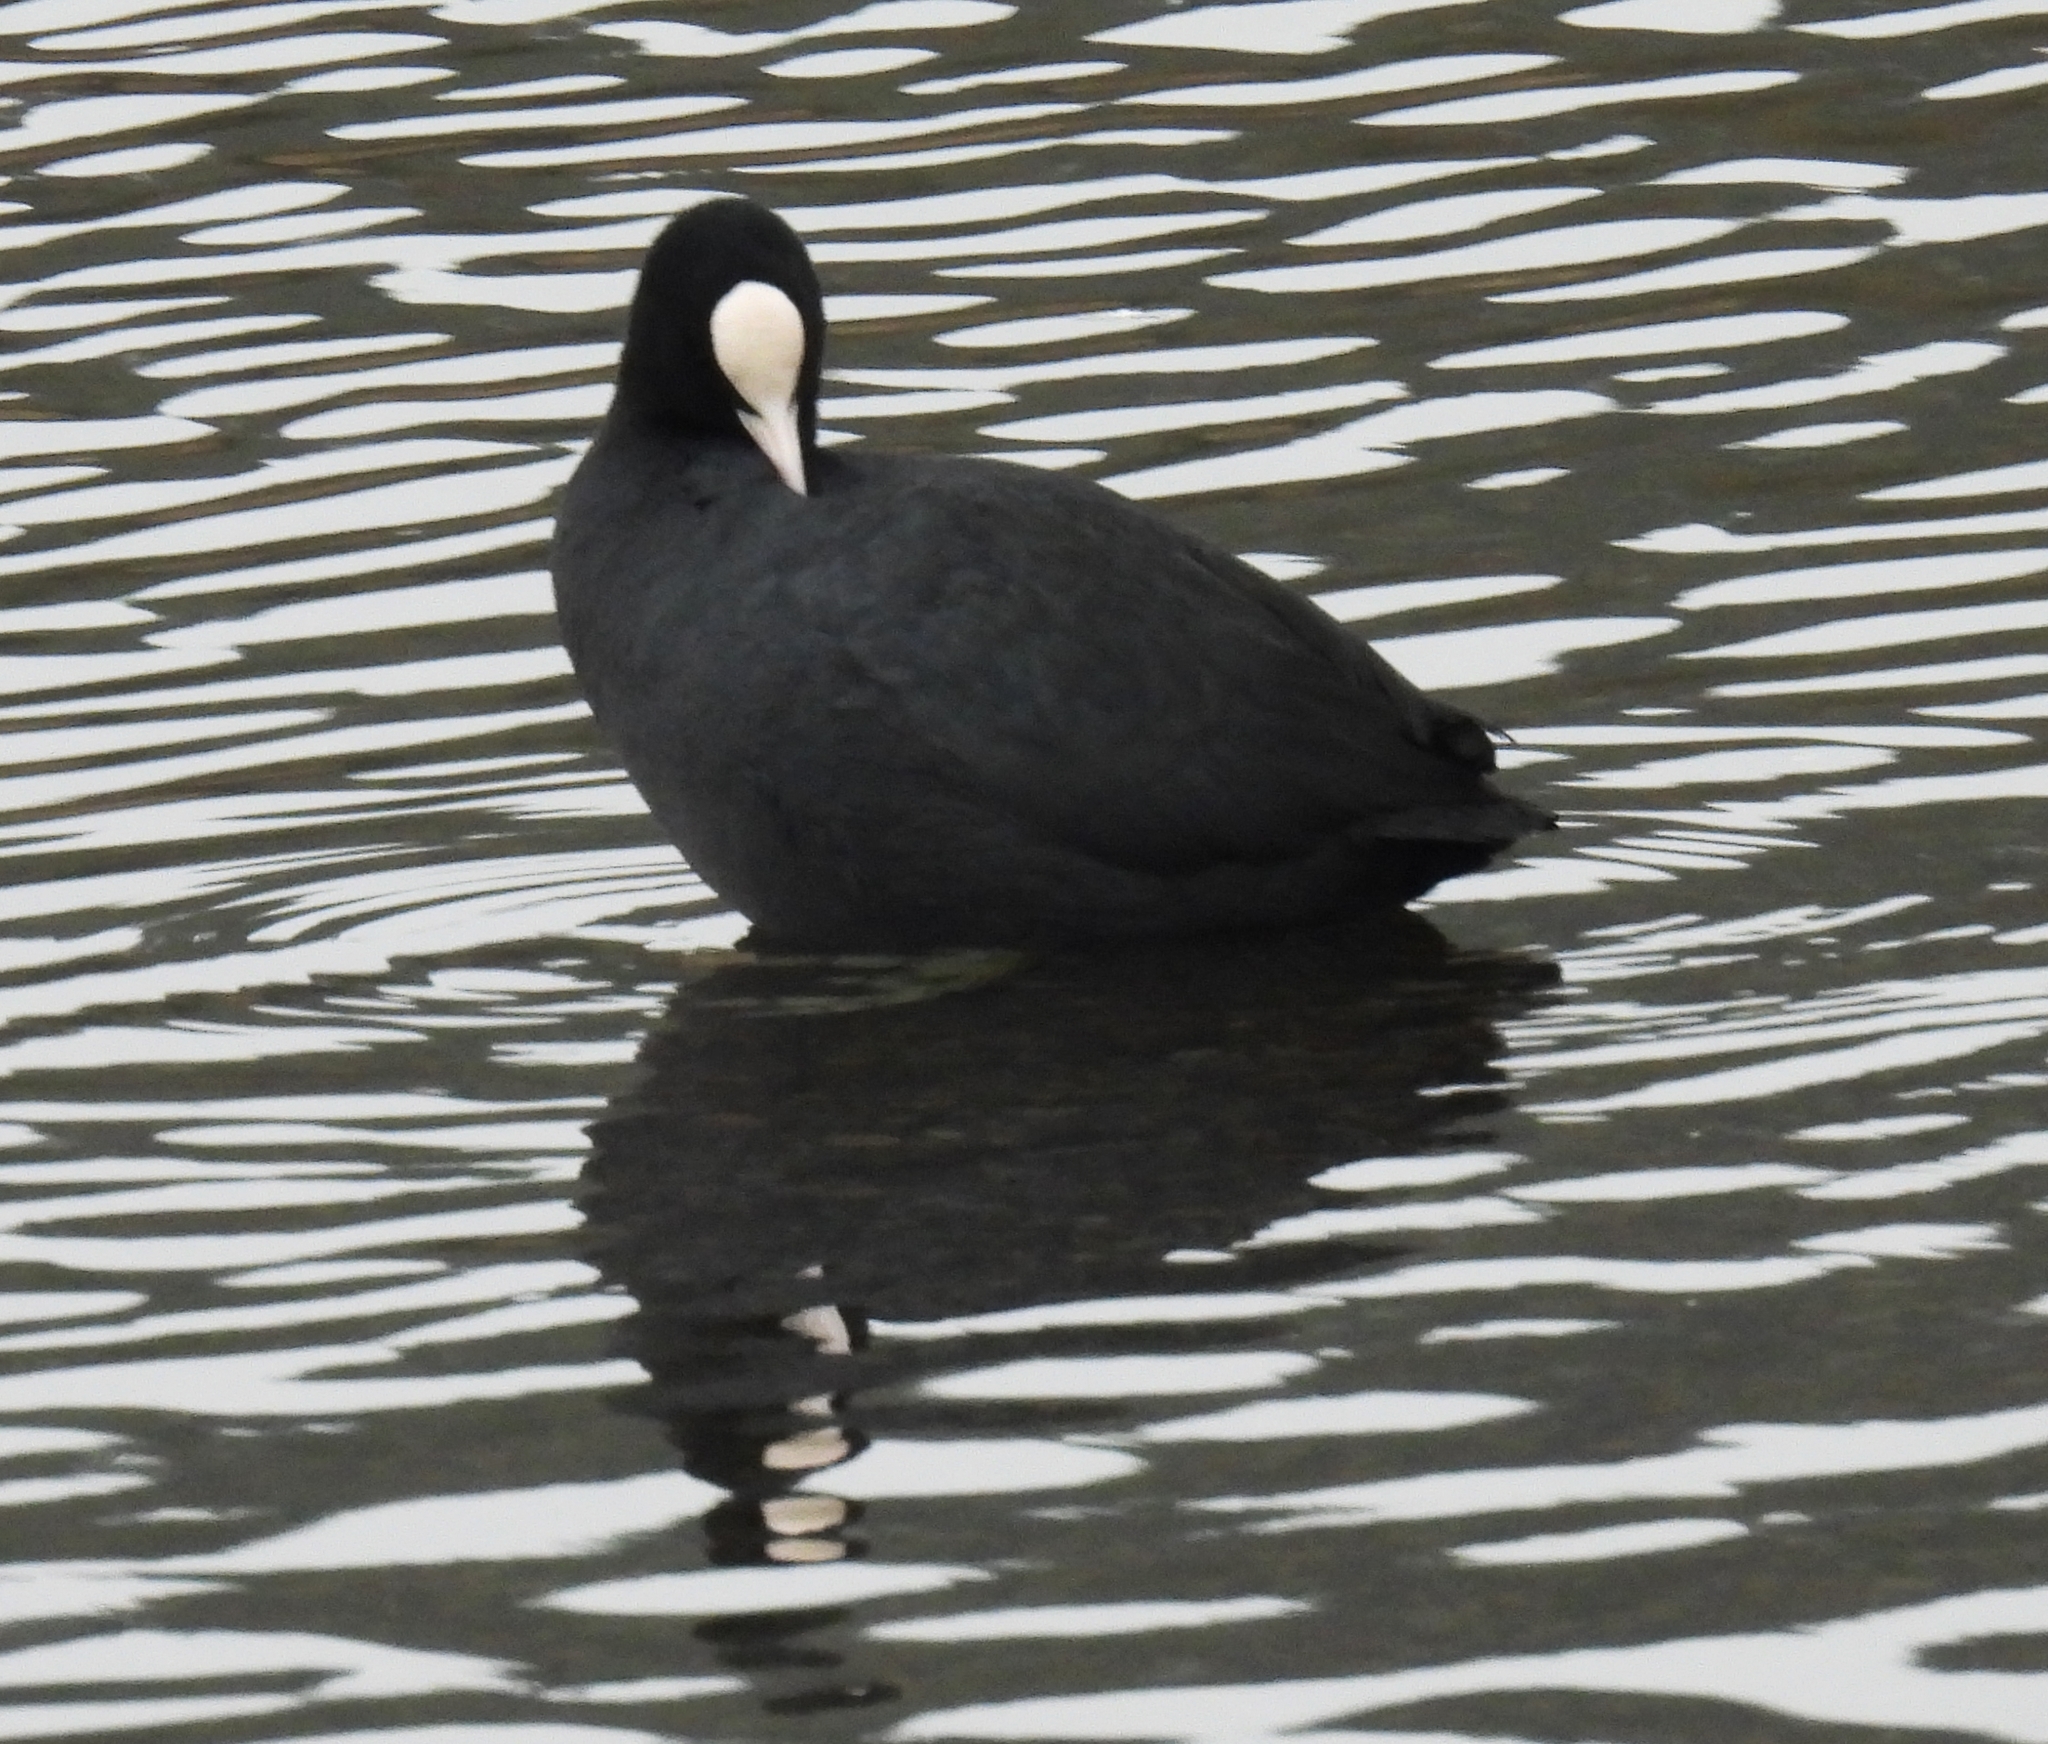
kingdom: Animalia
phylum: Chordata
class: Aves
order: Gruiformes
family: Rallidae
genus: Fulica
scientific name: Fulica atra
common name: Eurasian coot
